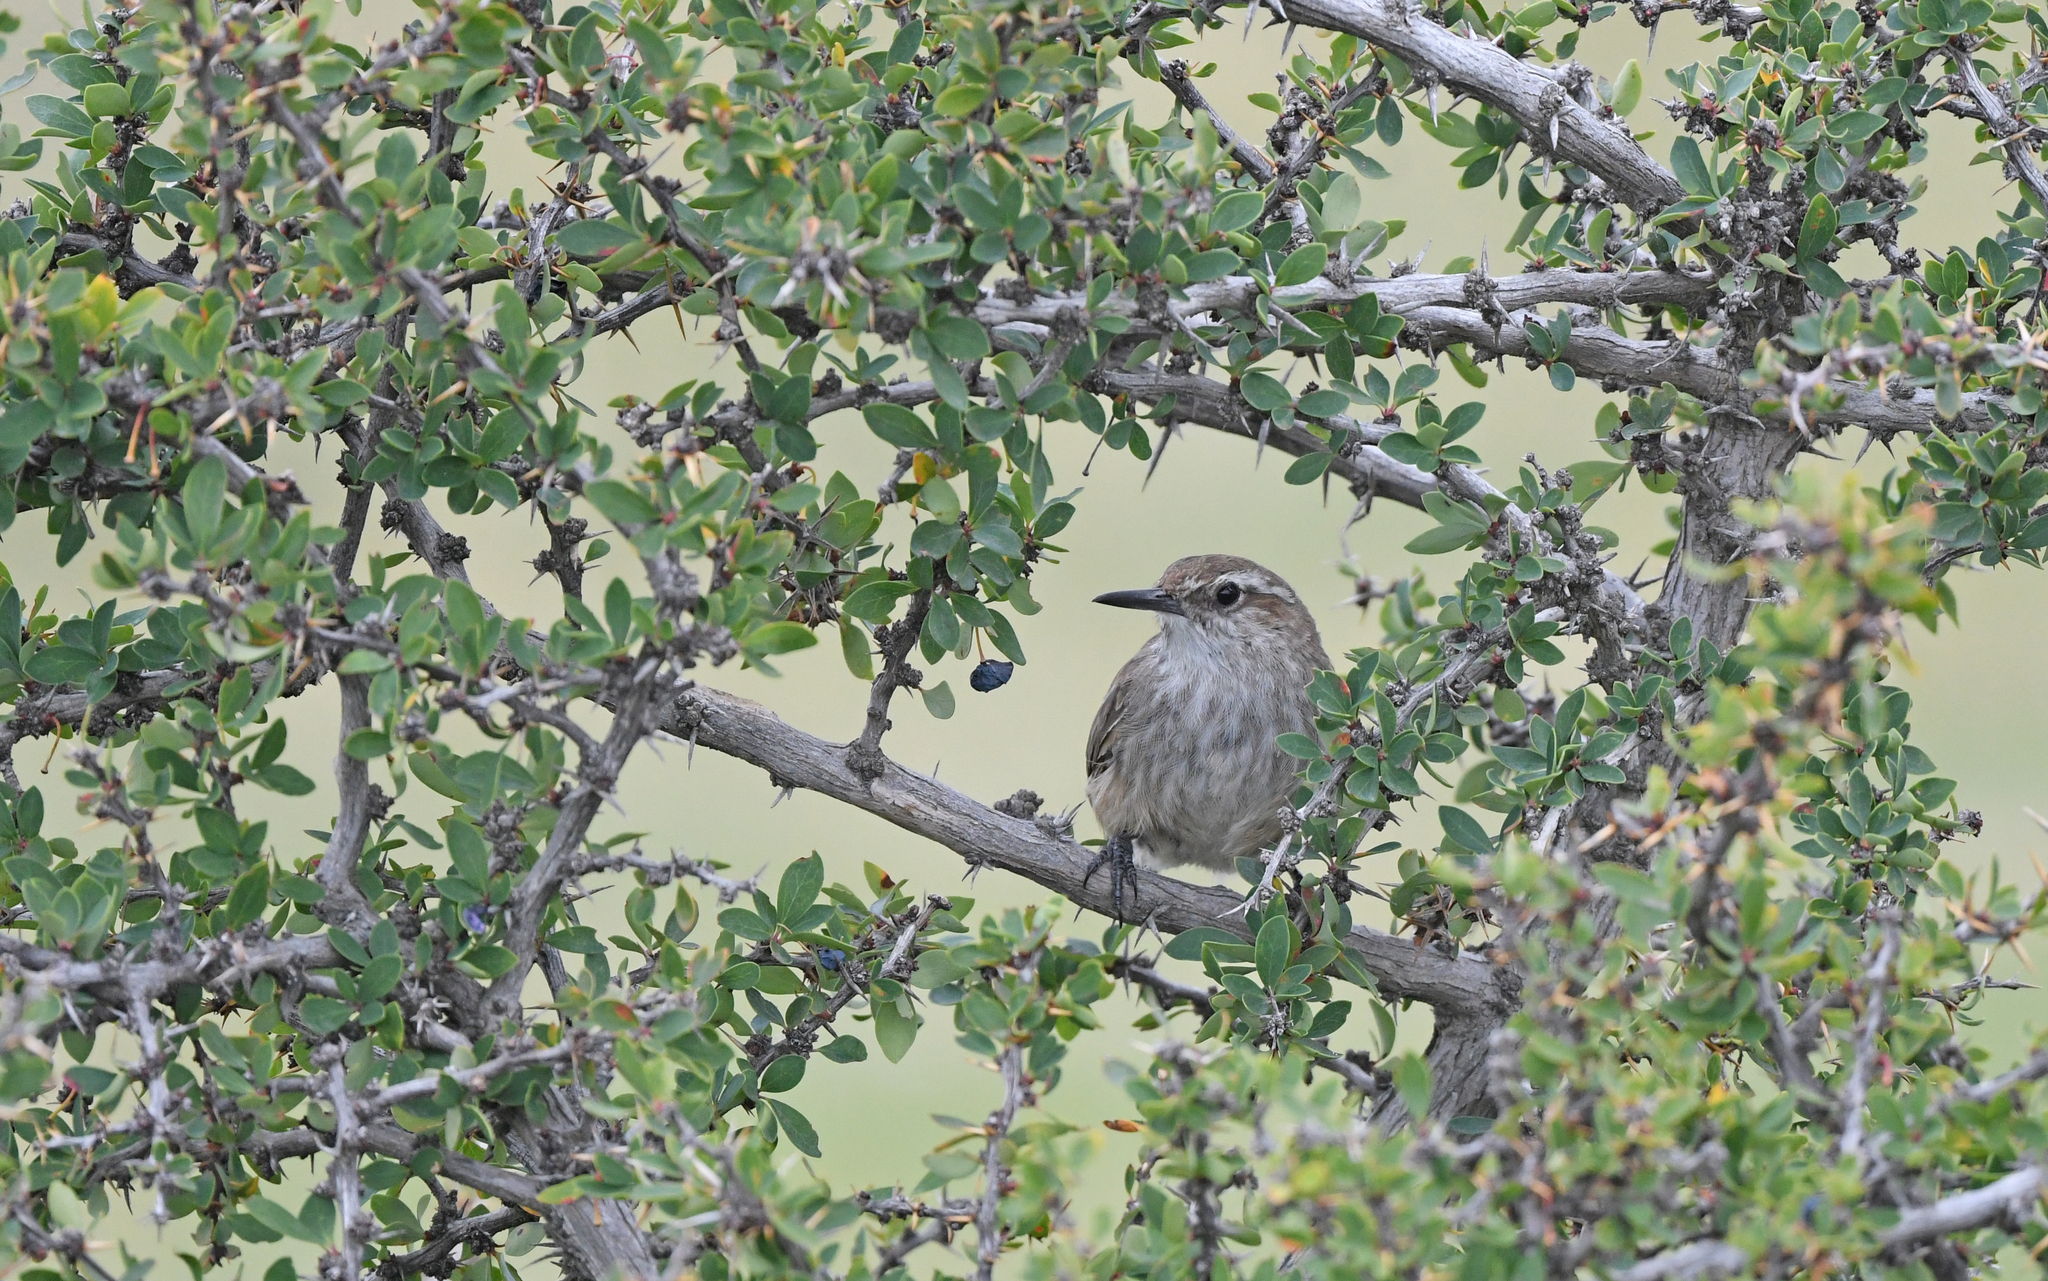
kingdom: Animalia
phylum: Chordata
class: Aves
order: Passeriformes
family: Furnariidae
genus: Eremobius
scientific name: Eremobius phoenicurus
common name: Band-tailed eremobius
